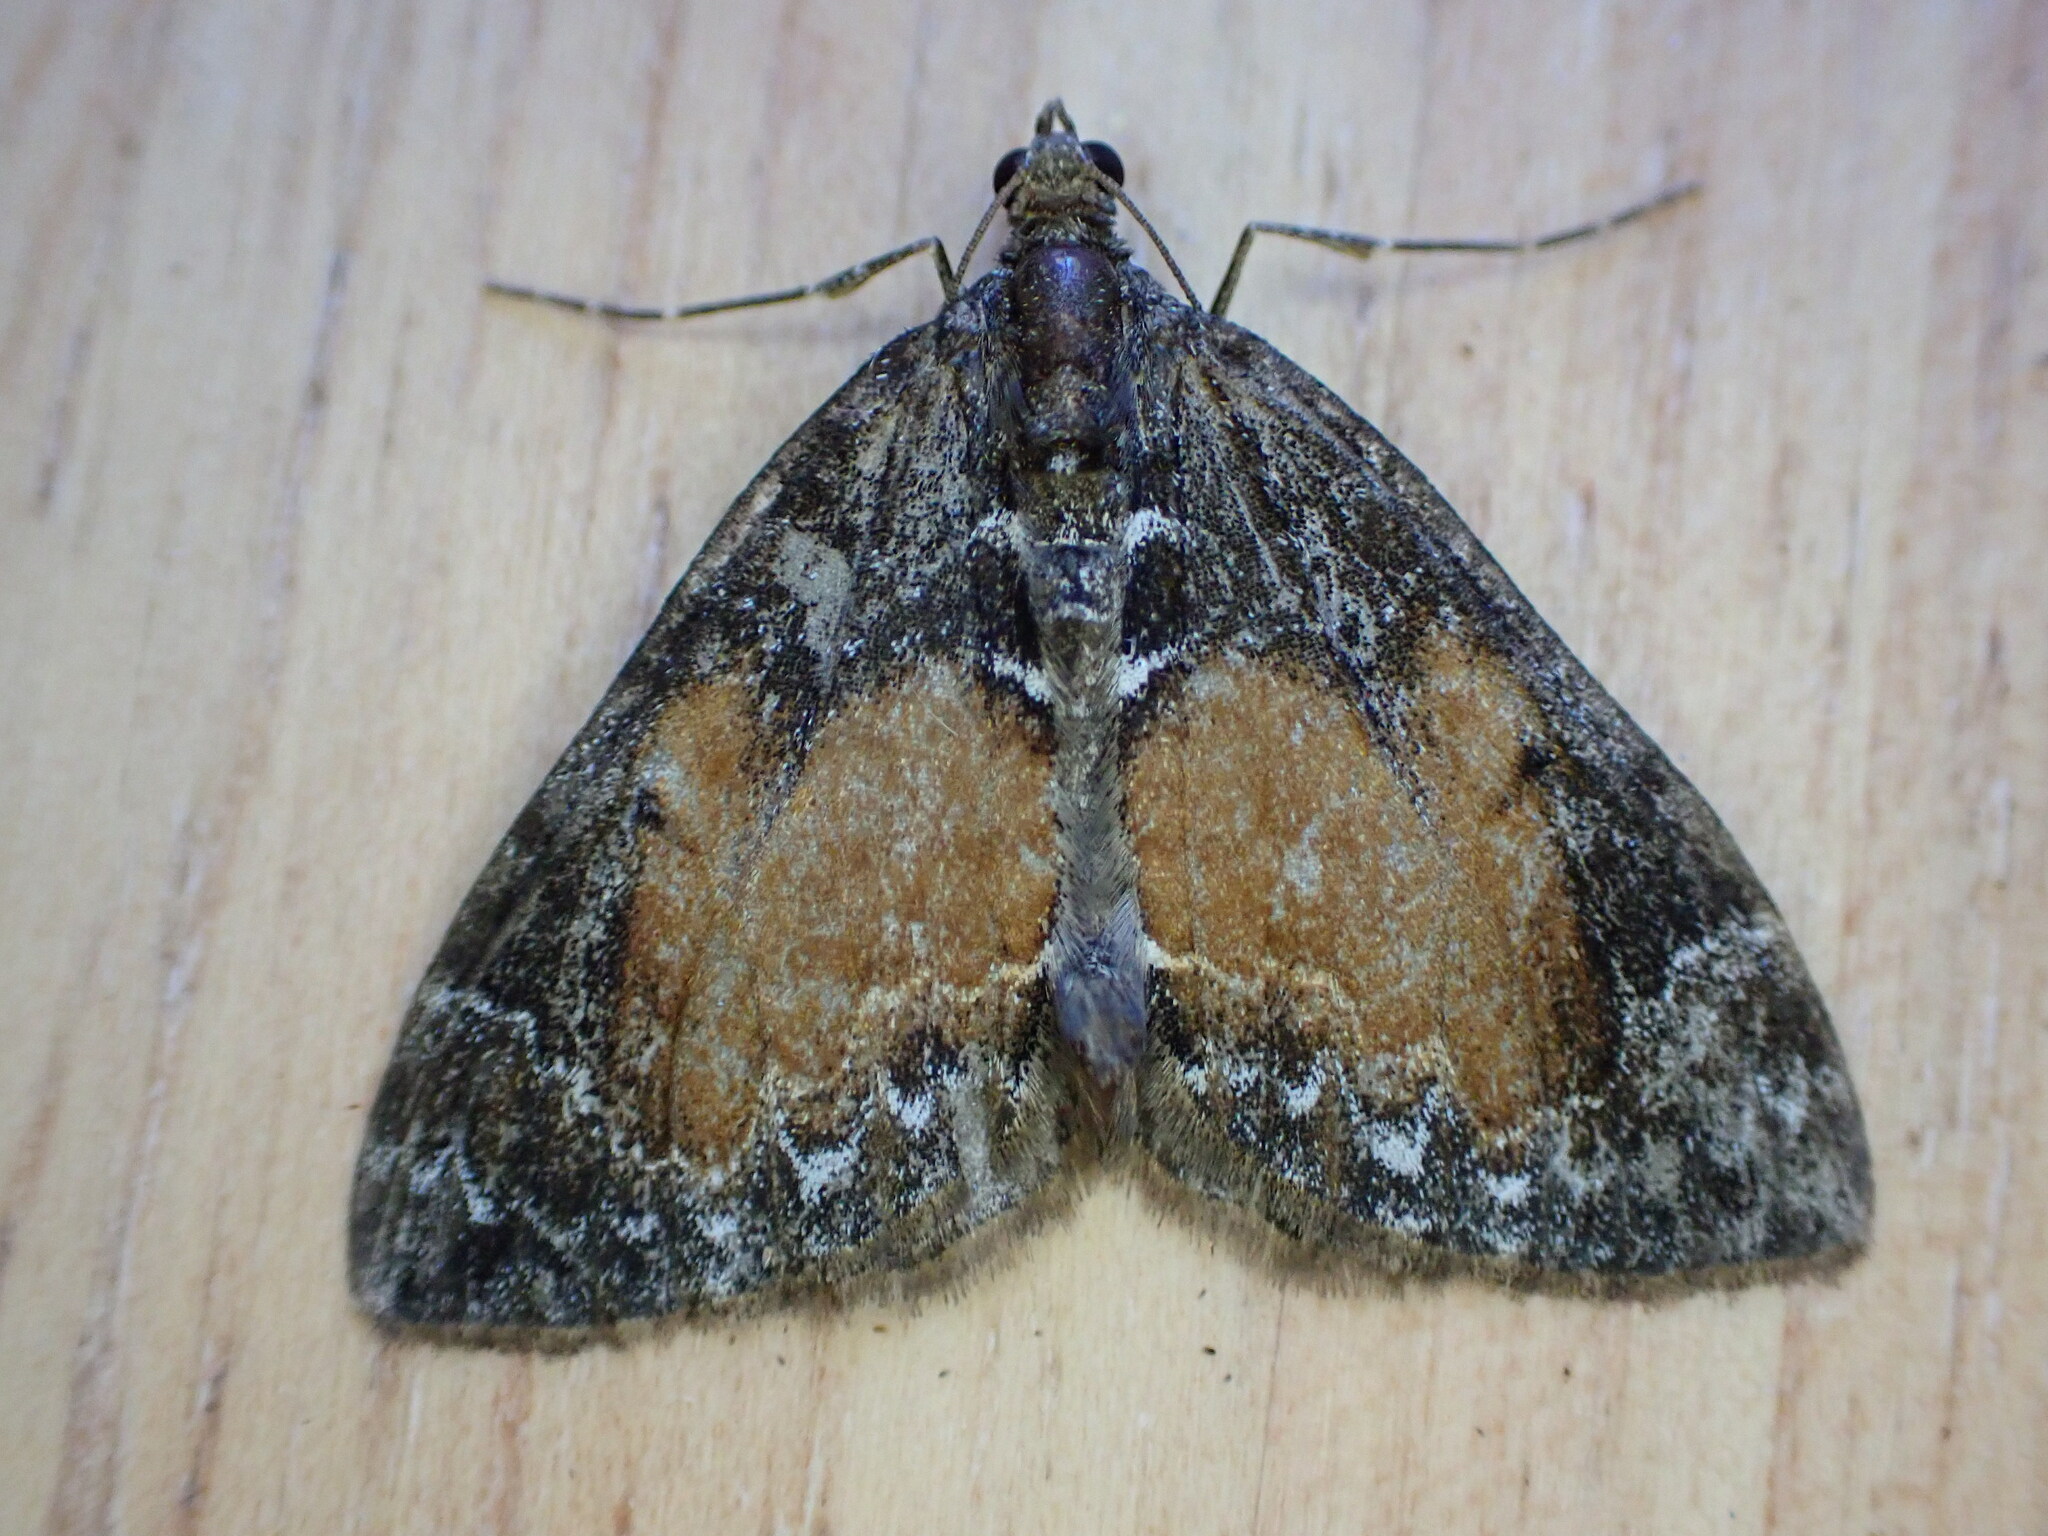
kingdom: Animalia
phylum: Arthropoda
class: Insecta
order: Lepidoptera
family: Geometridae
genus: Dysstroma
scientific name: Dysstroma truncata
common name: Common marbled carpet
